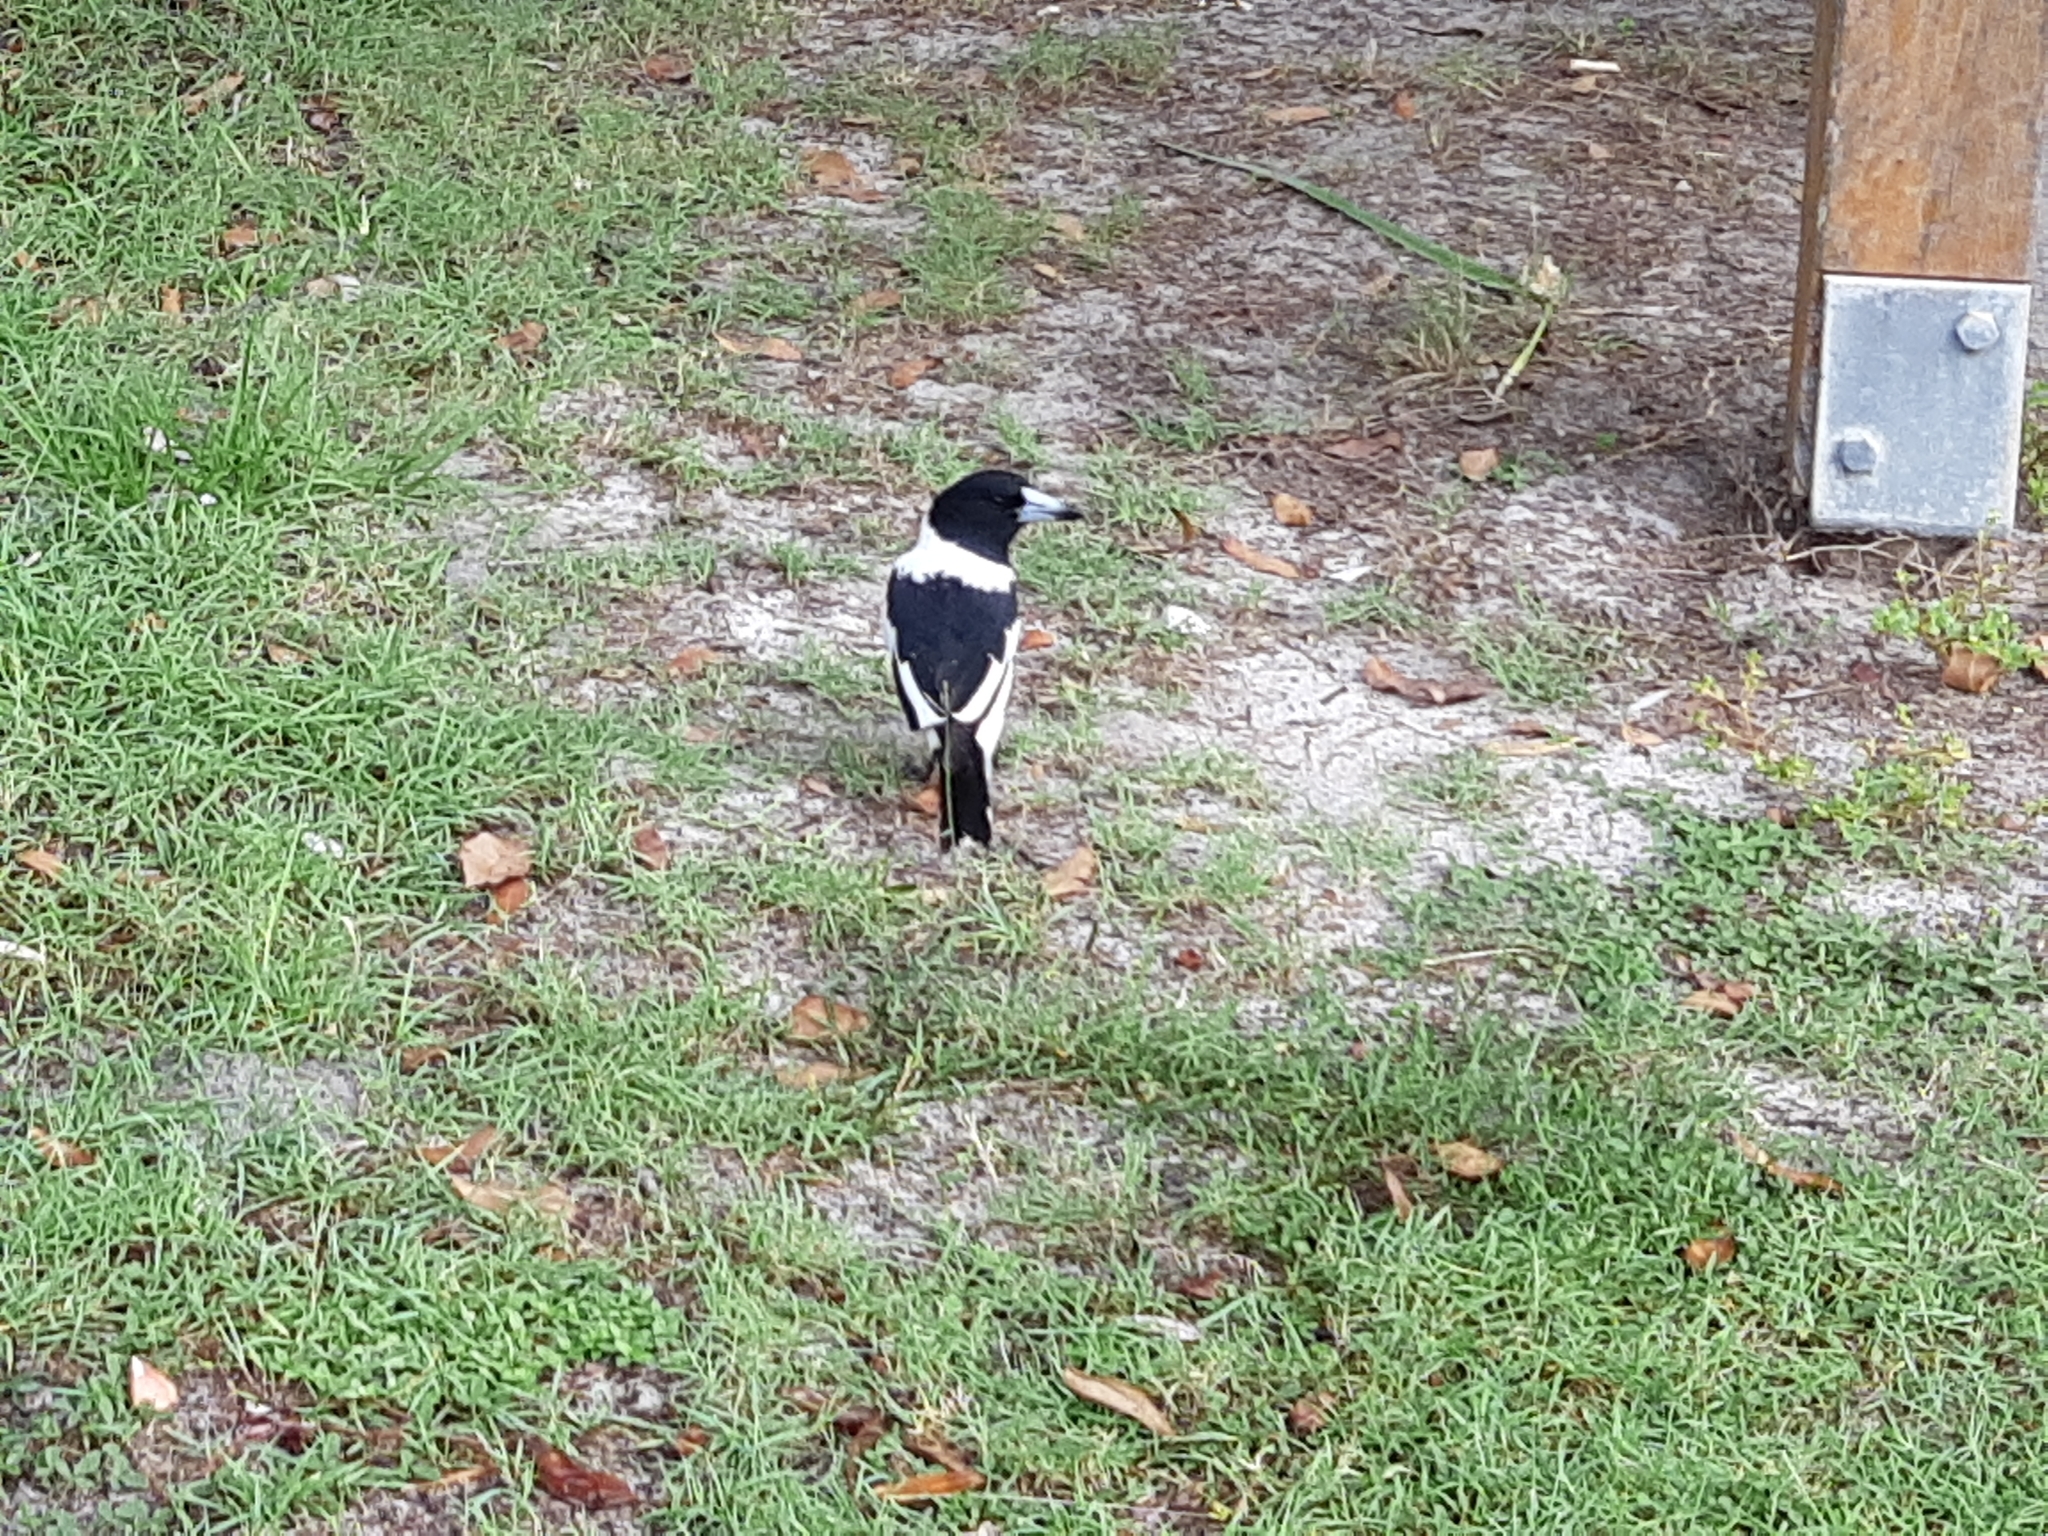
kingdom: Animalia
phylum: Chordata
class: Aves
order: Passeriformes
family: Cracticidae
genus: Cracticus
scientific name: Cracticus nigrogularis
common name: Pied butcherbird
